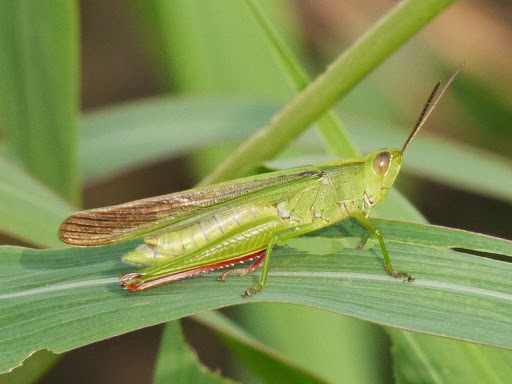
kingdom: Animalia
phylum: Arthropoda
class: Insecta
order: Orthoptera
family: Acrididae
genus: Paracinema
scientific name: Paracinema tricolor
